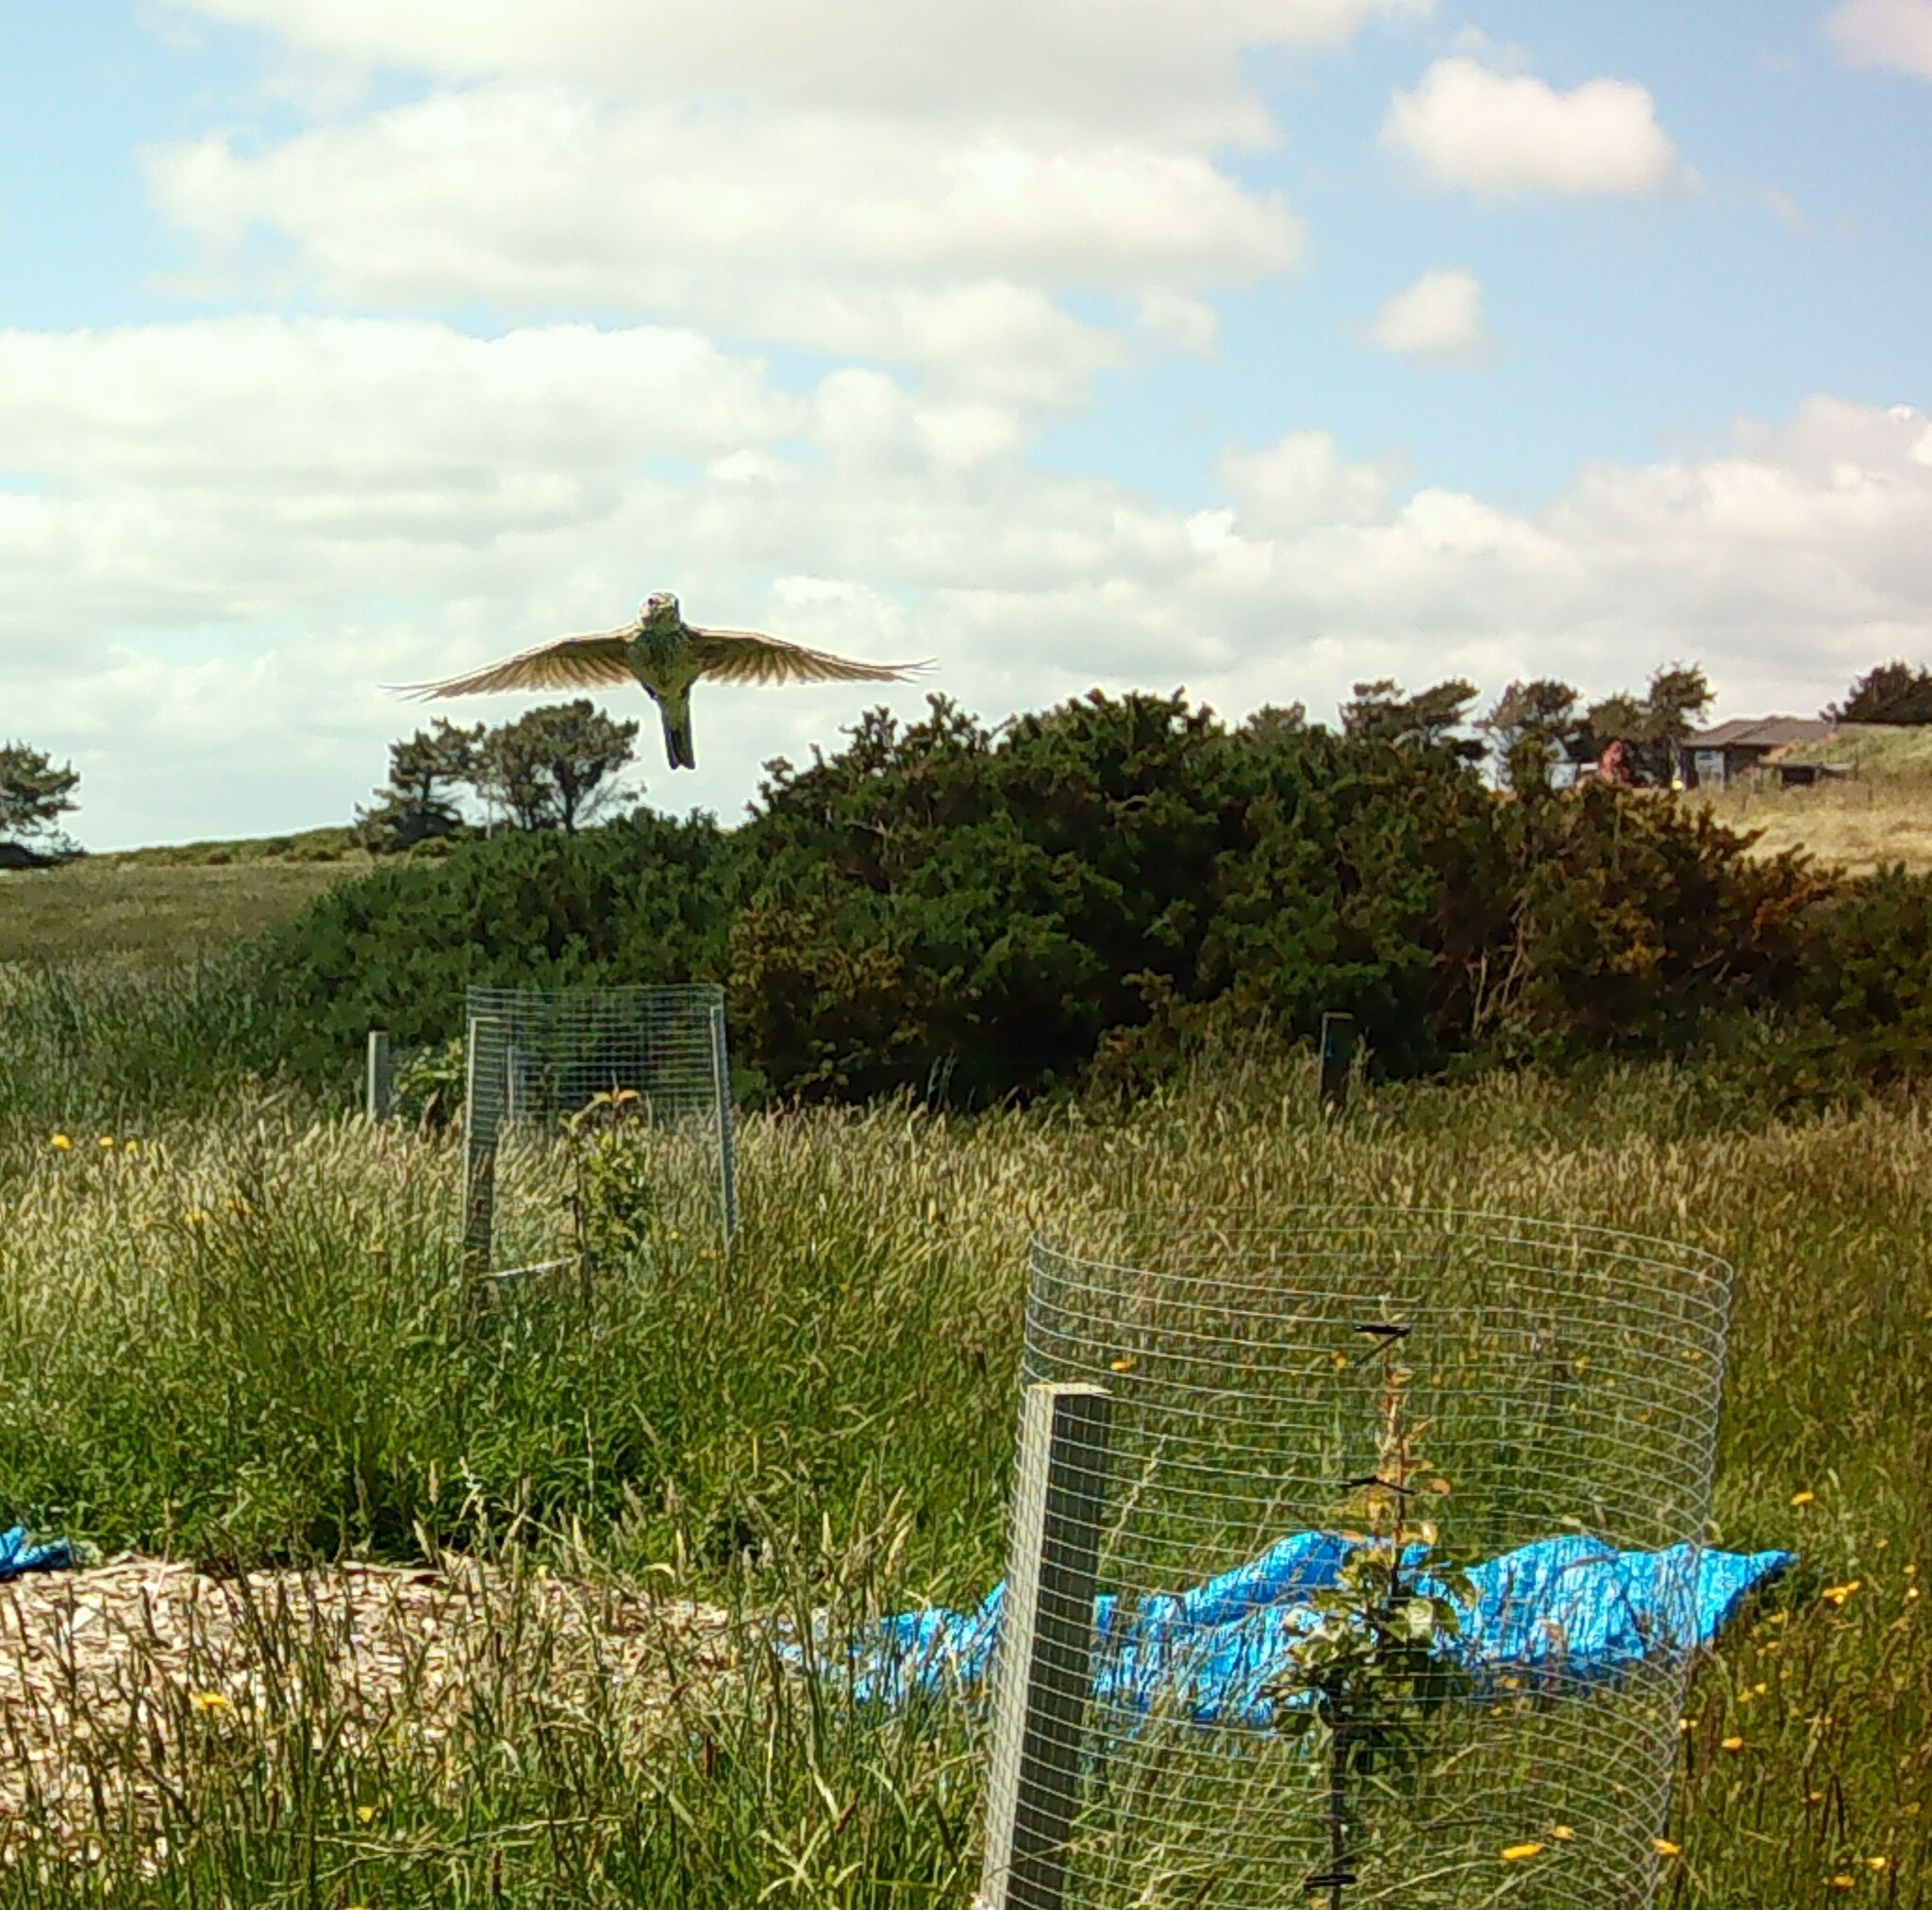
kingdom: Animalia
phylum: Chordata
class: Aves
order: Passeriformes
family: Turdidae
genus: Turdus
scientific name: Turdus philomelos
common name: Song thrush
